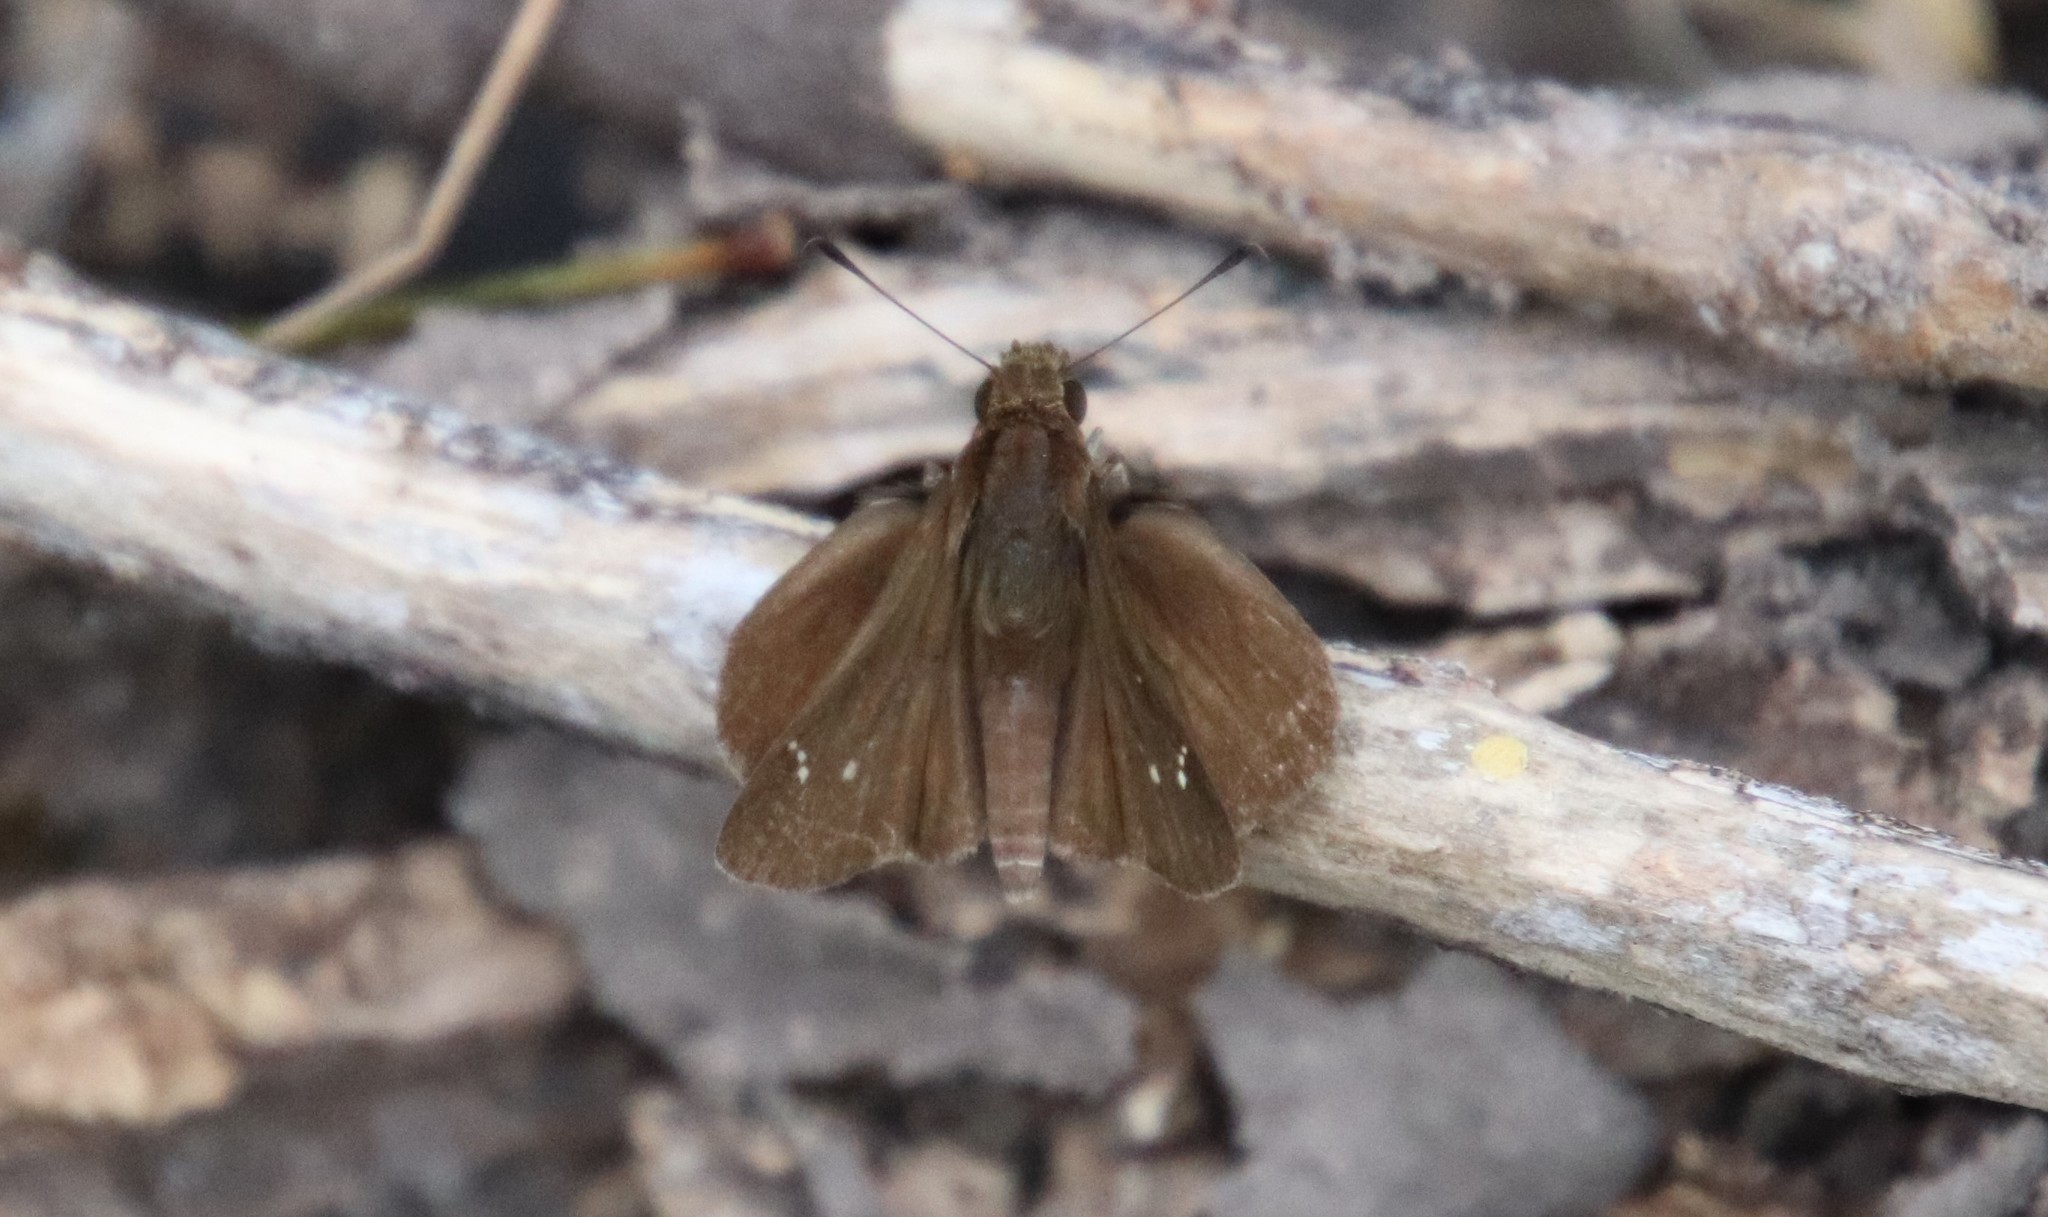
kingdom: Animalia
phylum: Arthropoda
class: Insecta
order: Lepidoptera
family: Hesperiidae
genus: Lerema
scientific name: Lerema accius
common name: Clouded skipper
